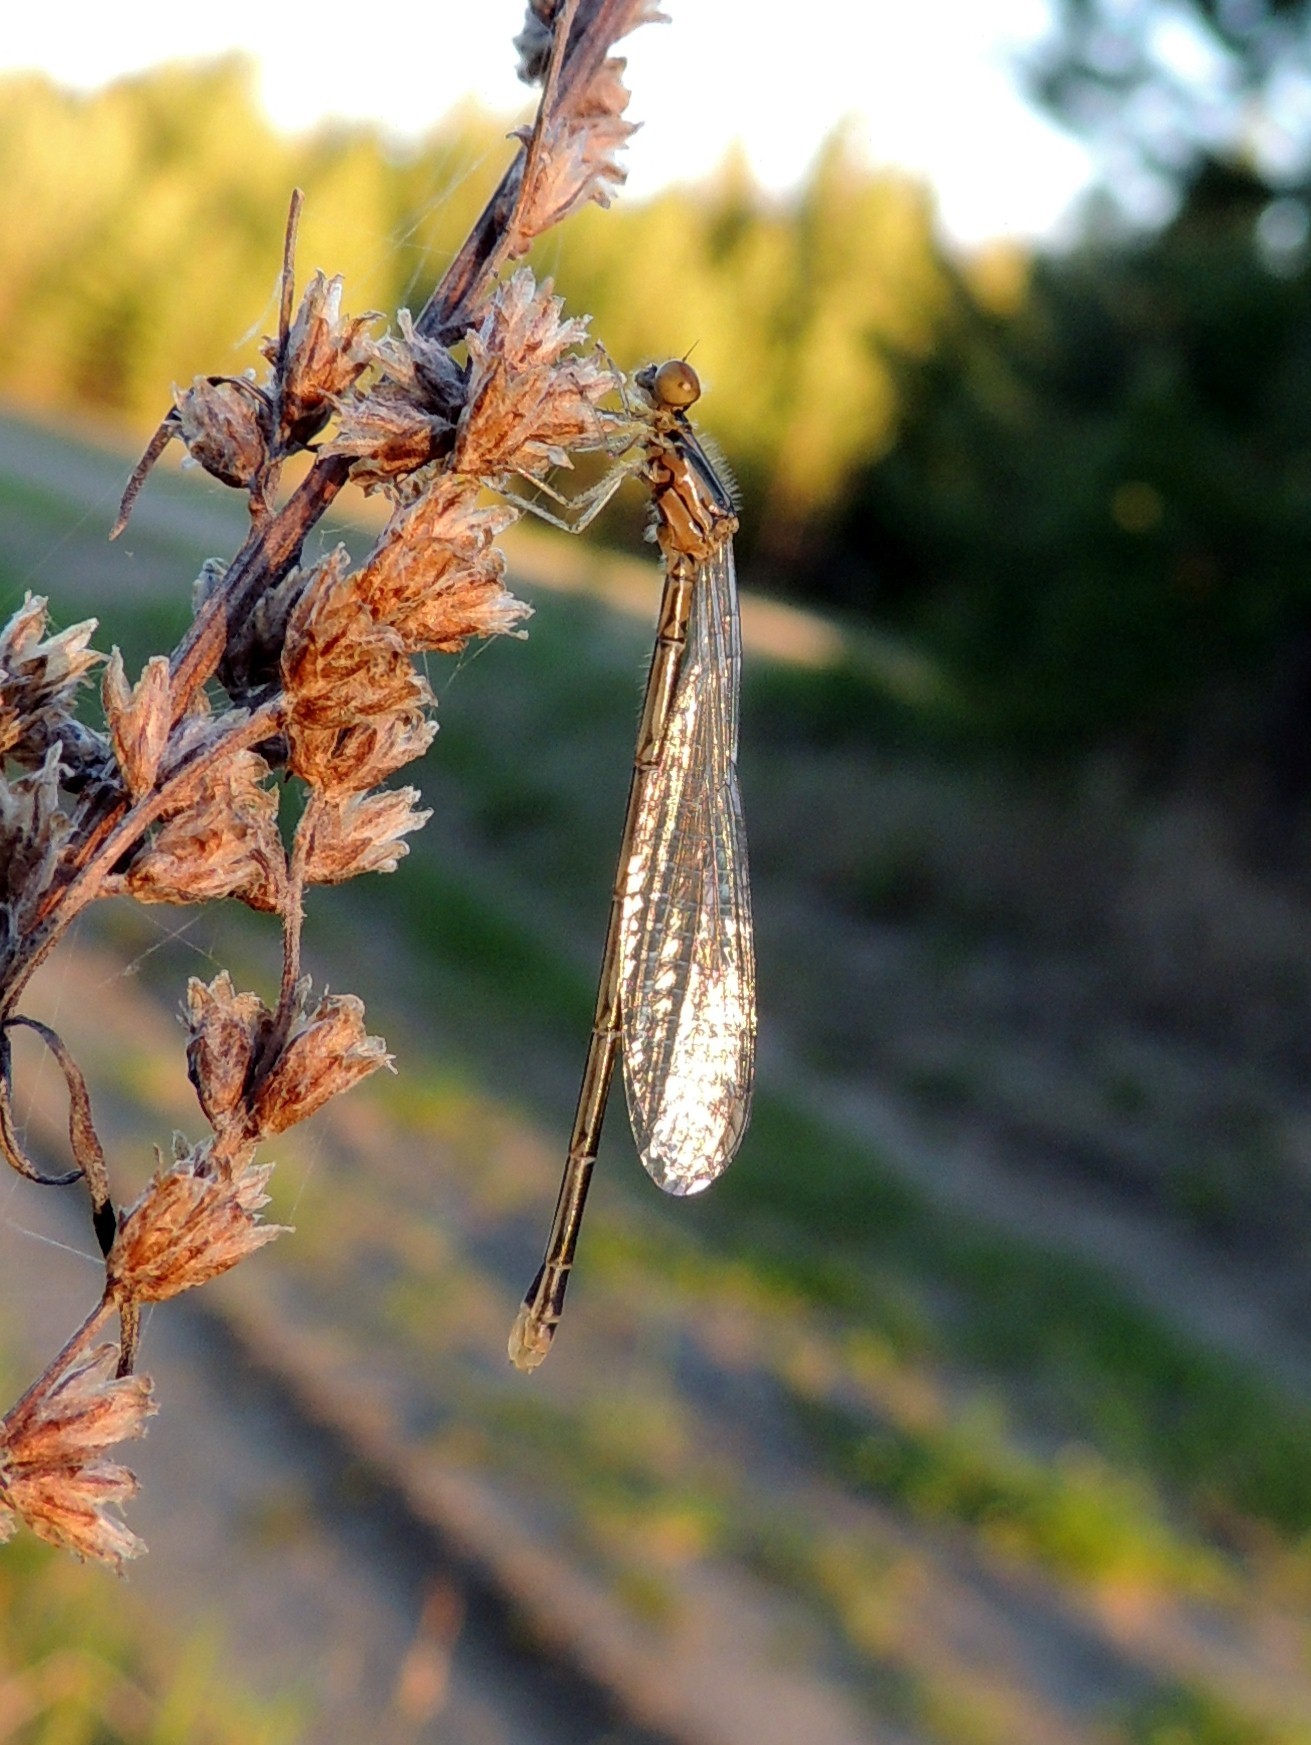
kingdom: Animalia
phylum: Arthropoda
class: Insecta
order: Odonata
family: Coenagrionidae
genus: Coenagrion
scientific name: Coenagrion johanssoni
